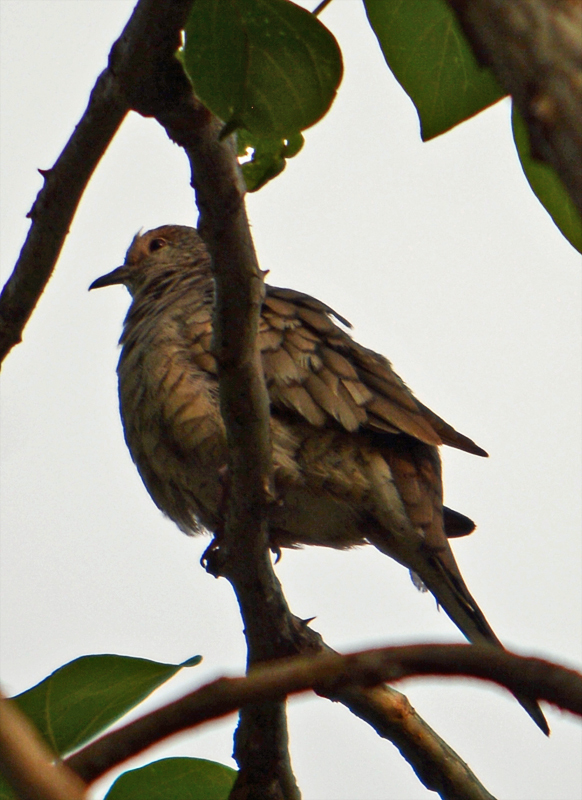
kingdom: Animalia
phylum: Chordata
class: Aves
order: Columbiformes
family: Columbidae
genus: Columbina
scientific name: Columbina inca
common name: Inca dove
